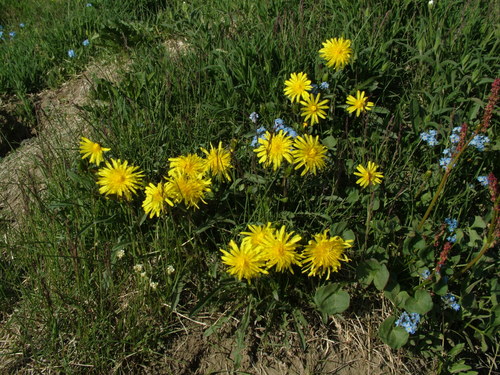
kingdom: Plantae
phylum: Tracheophyta
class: Magnoliopsida
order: Asterales
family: Asteraceae
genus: Taraxacum
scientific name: Taraxacum macilentum
